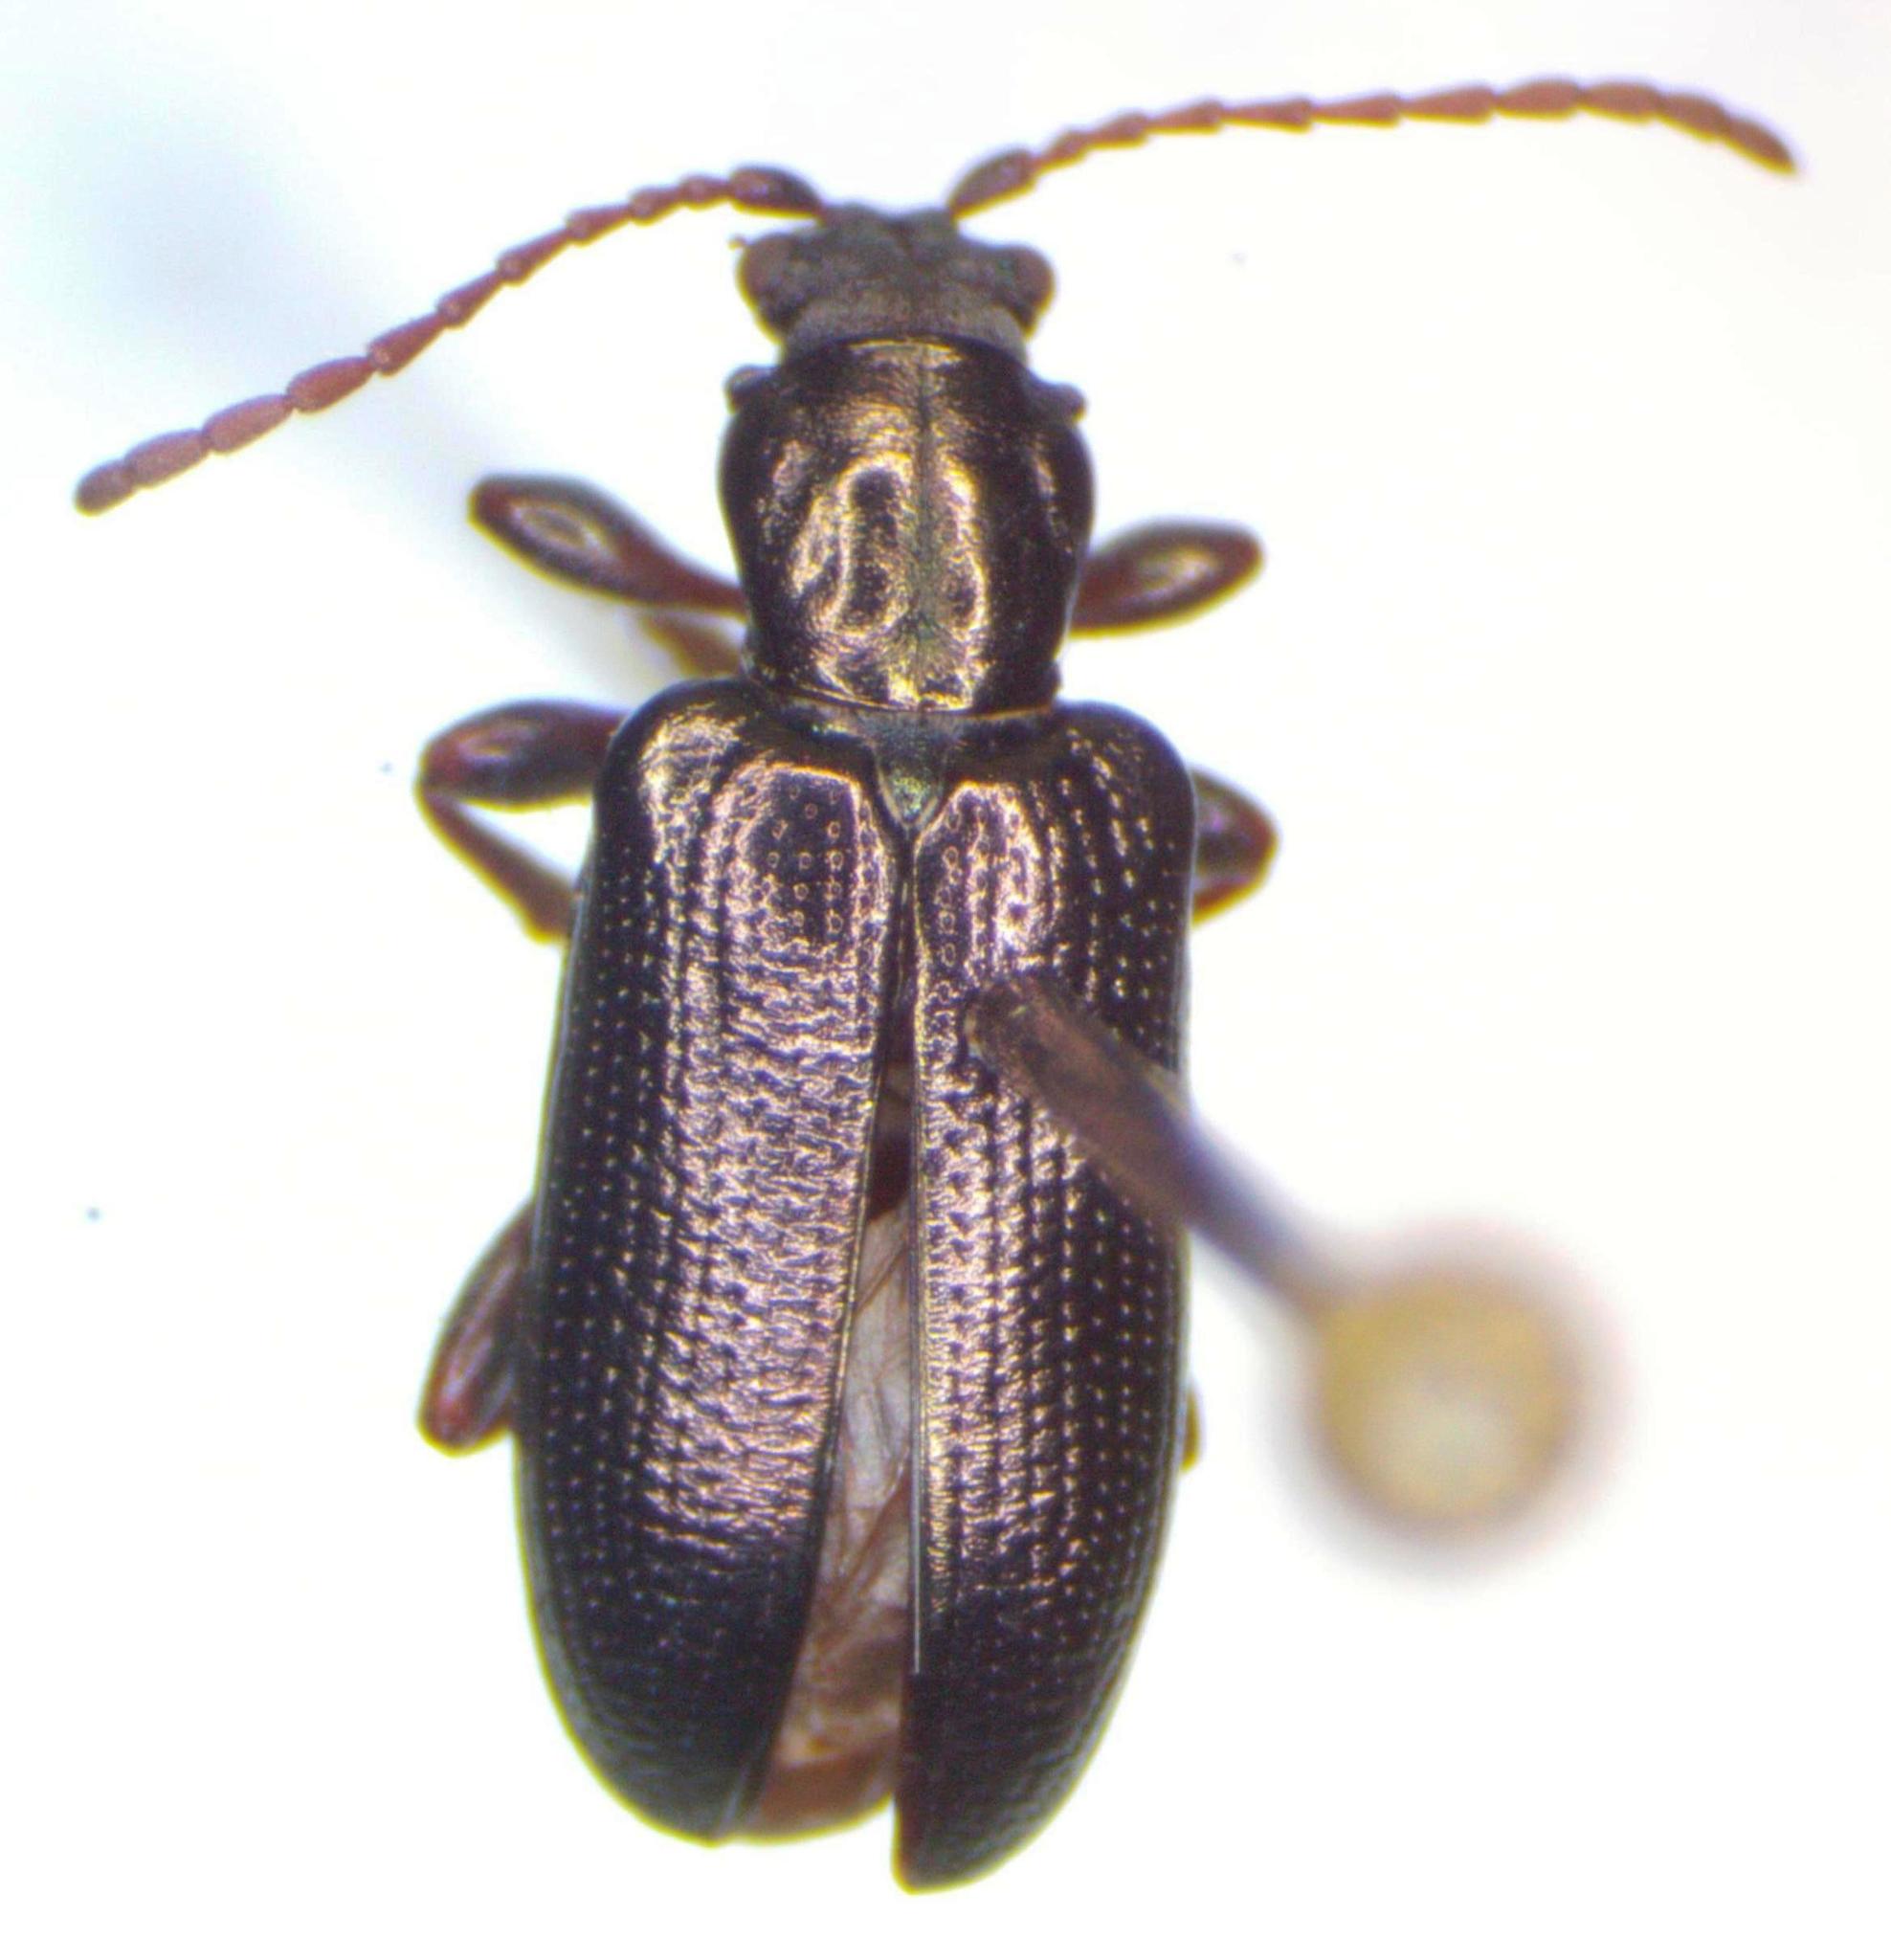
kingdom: Animalia
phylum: Arthropoda
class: Insecta
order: Coleoptera
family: Chrysomelidae
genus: Plateumaris
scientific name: Plateumaris metallica
